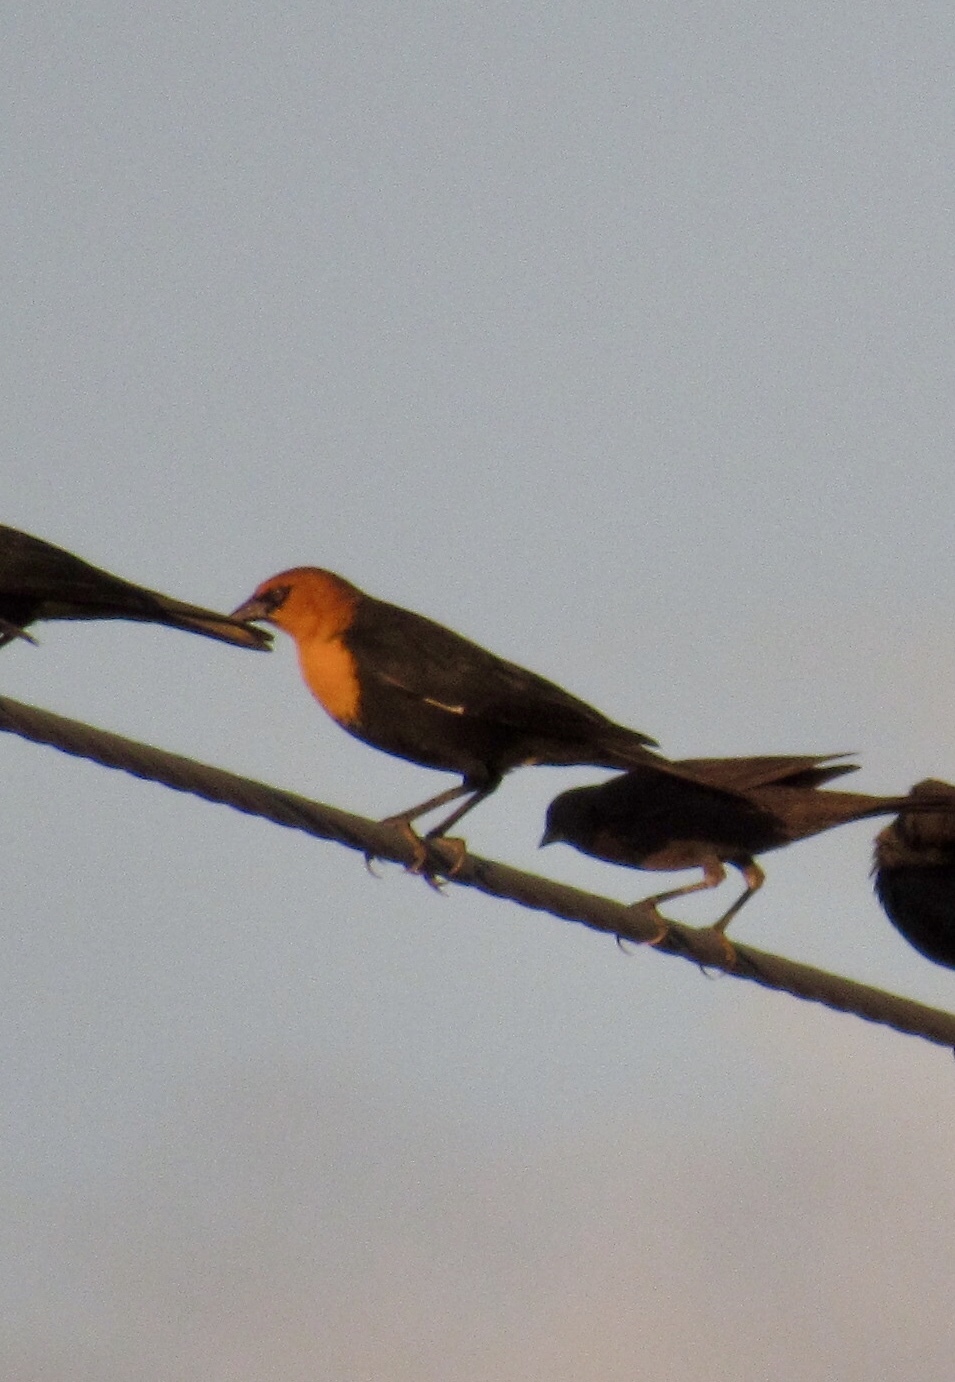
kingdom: Animalia
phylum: Chordata
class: Aves
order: Passeriformes
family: Icteridae
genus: Xanthocephalus
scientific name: Xanthocephalus xanthocephalus
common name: Yellow-headed blackbird
